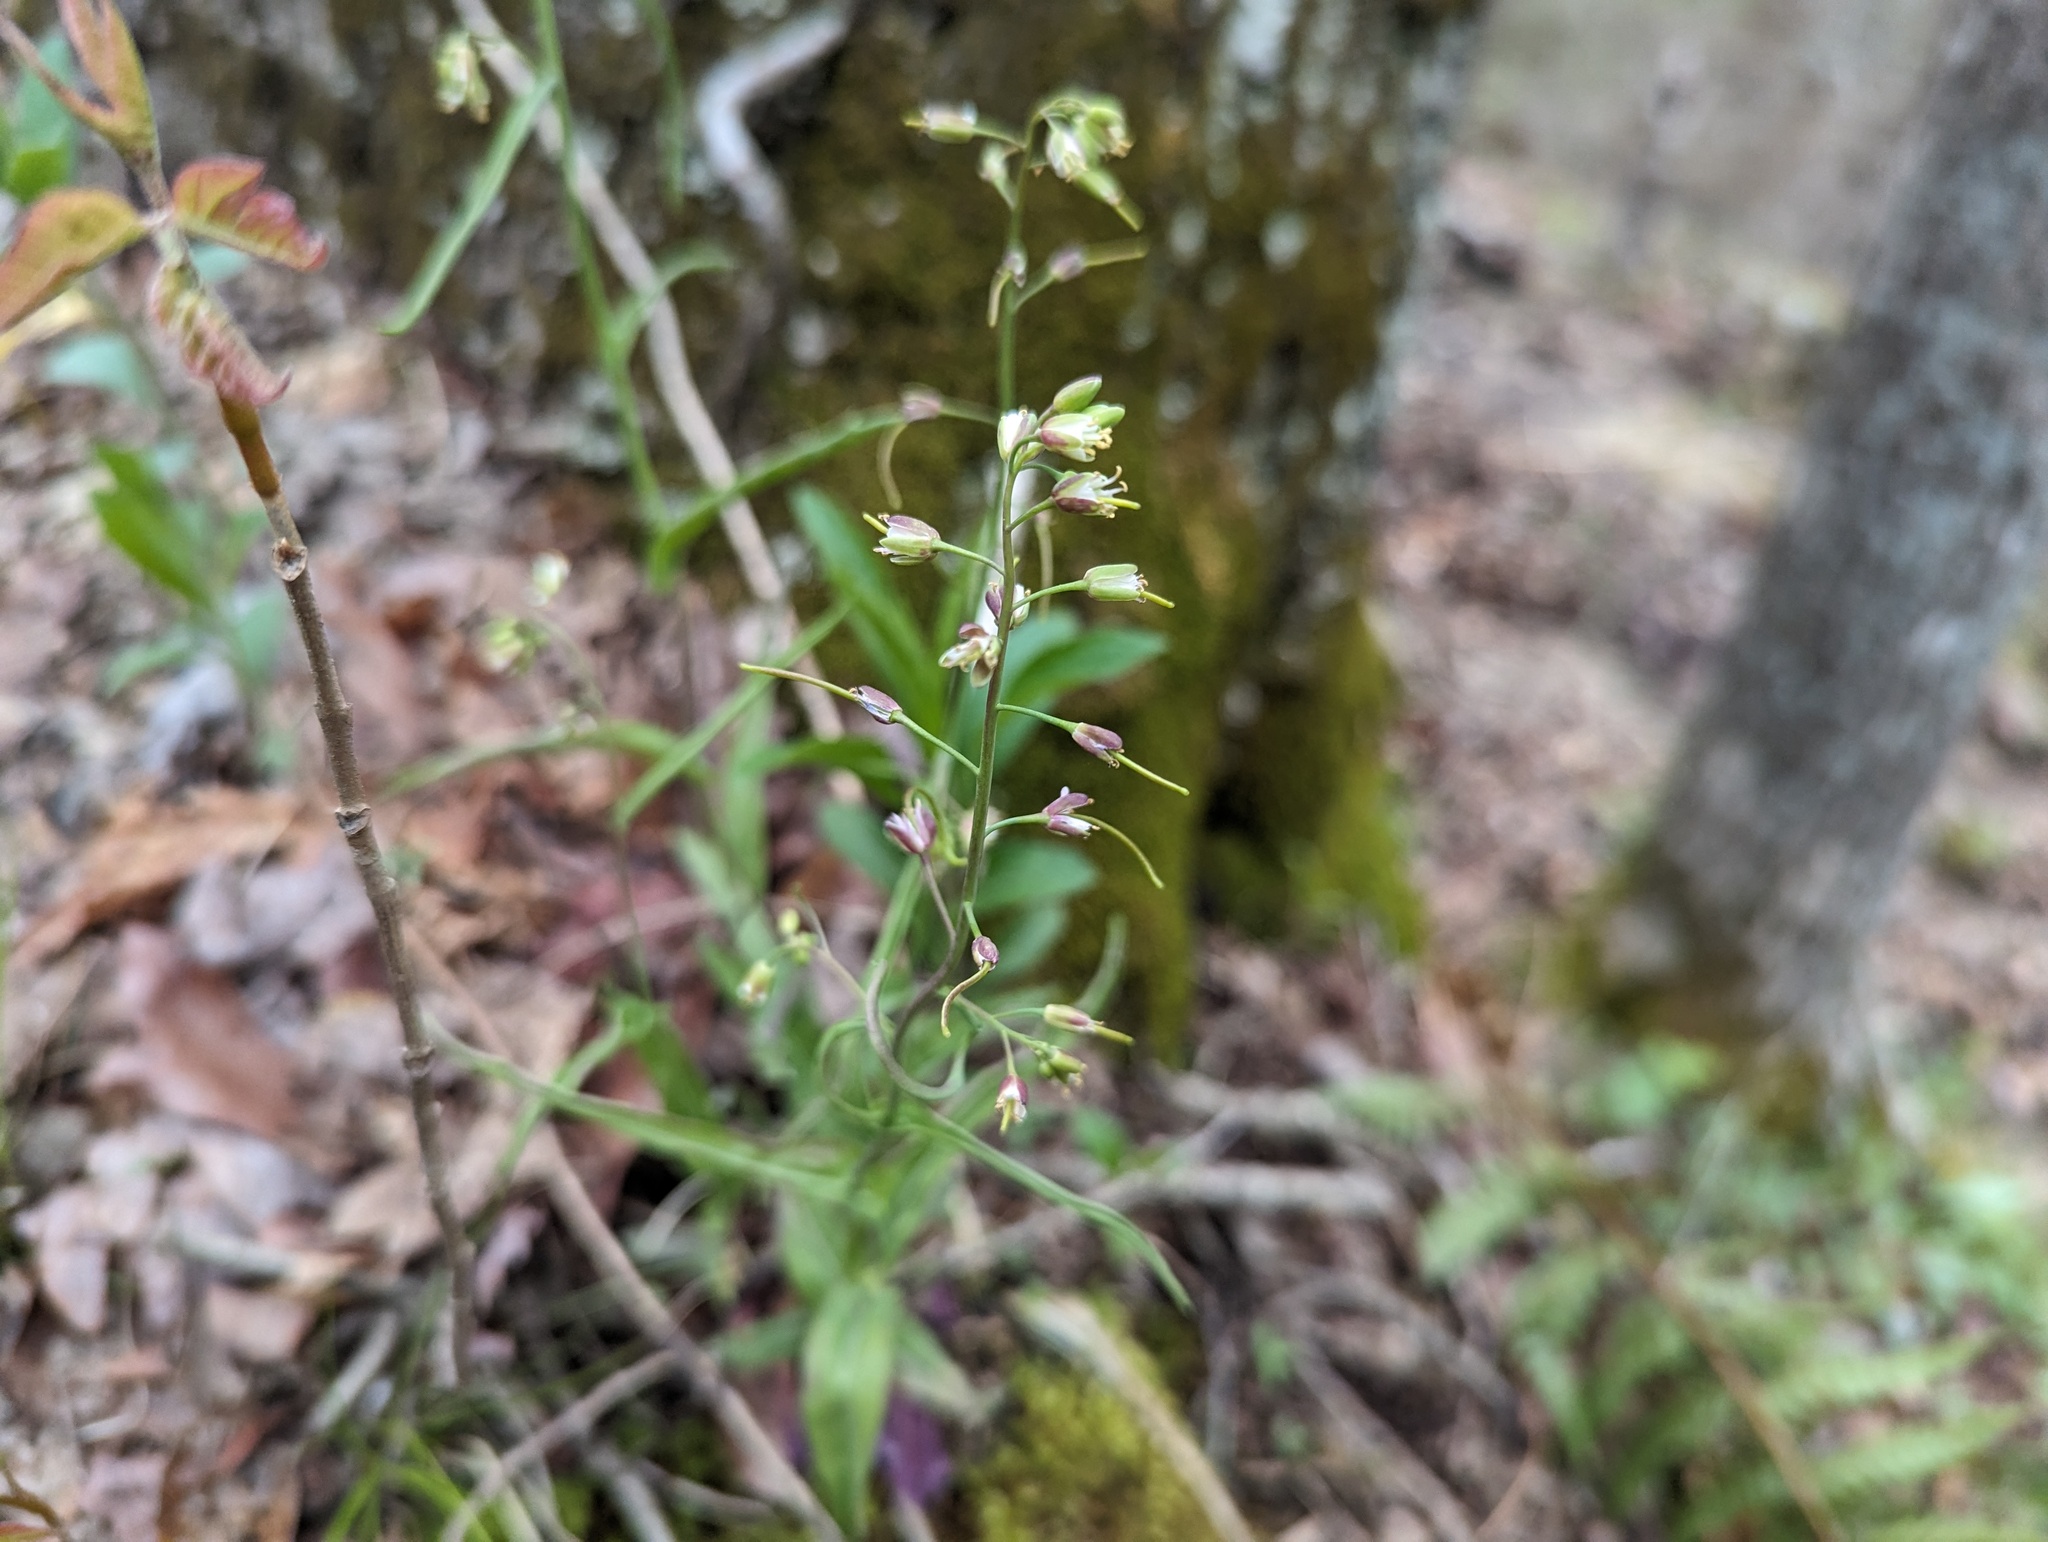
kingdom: Plantae
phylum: Tracheophyta
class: Magnoliopsida
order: Brassicales
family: Brassicaceae
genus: Borodinia
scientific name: Borodinia laevigata
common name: Smooth rockcress
